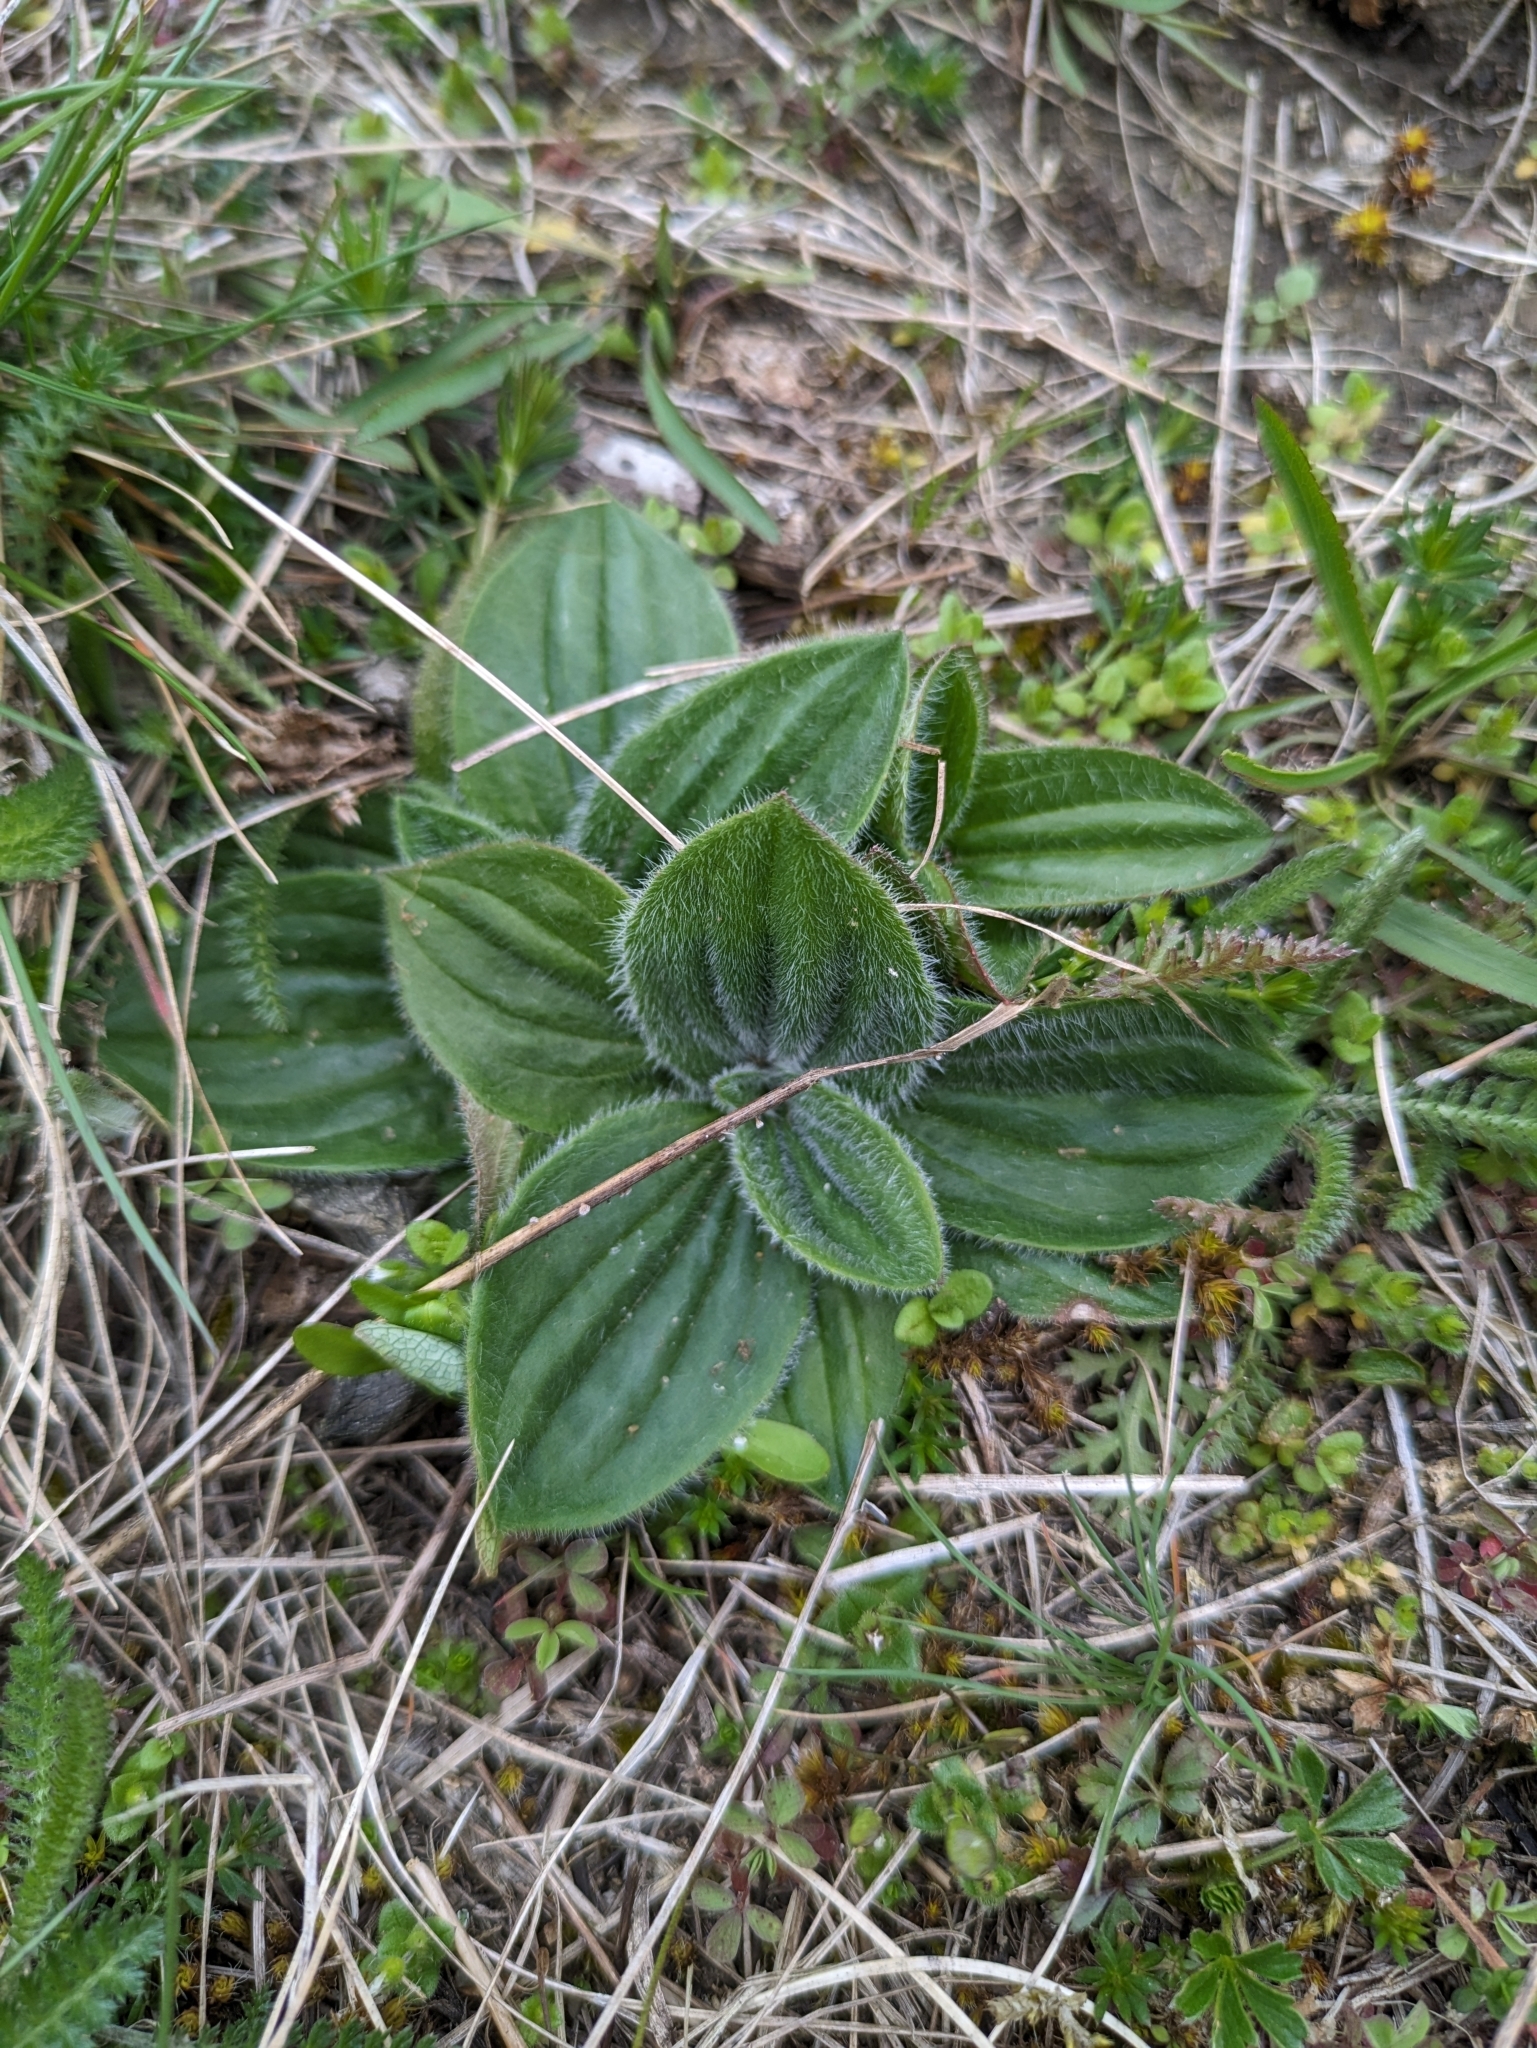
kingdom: Plantae
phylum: Tracheophyta
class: Magnoliopsida
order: Lamiales
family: Plantaginaceae
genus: Plantago
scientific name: Plantago media
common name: Hoary plantain
